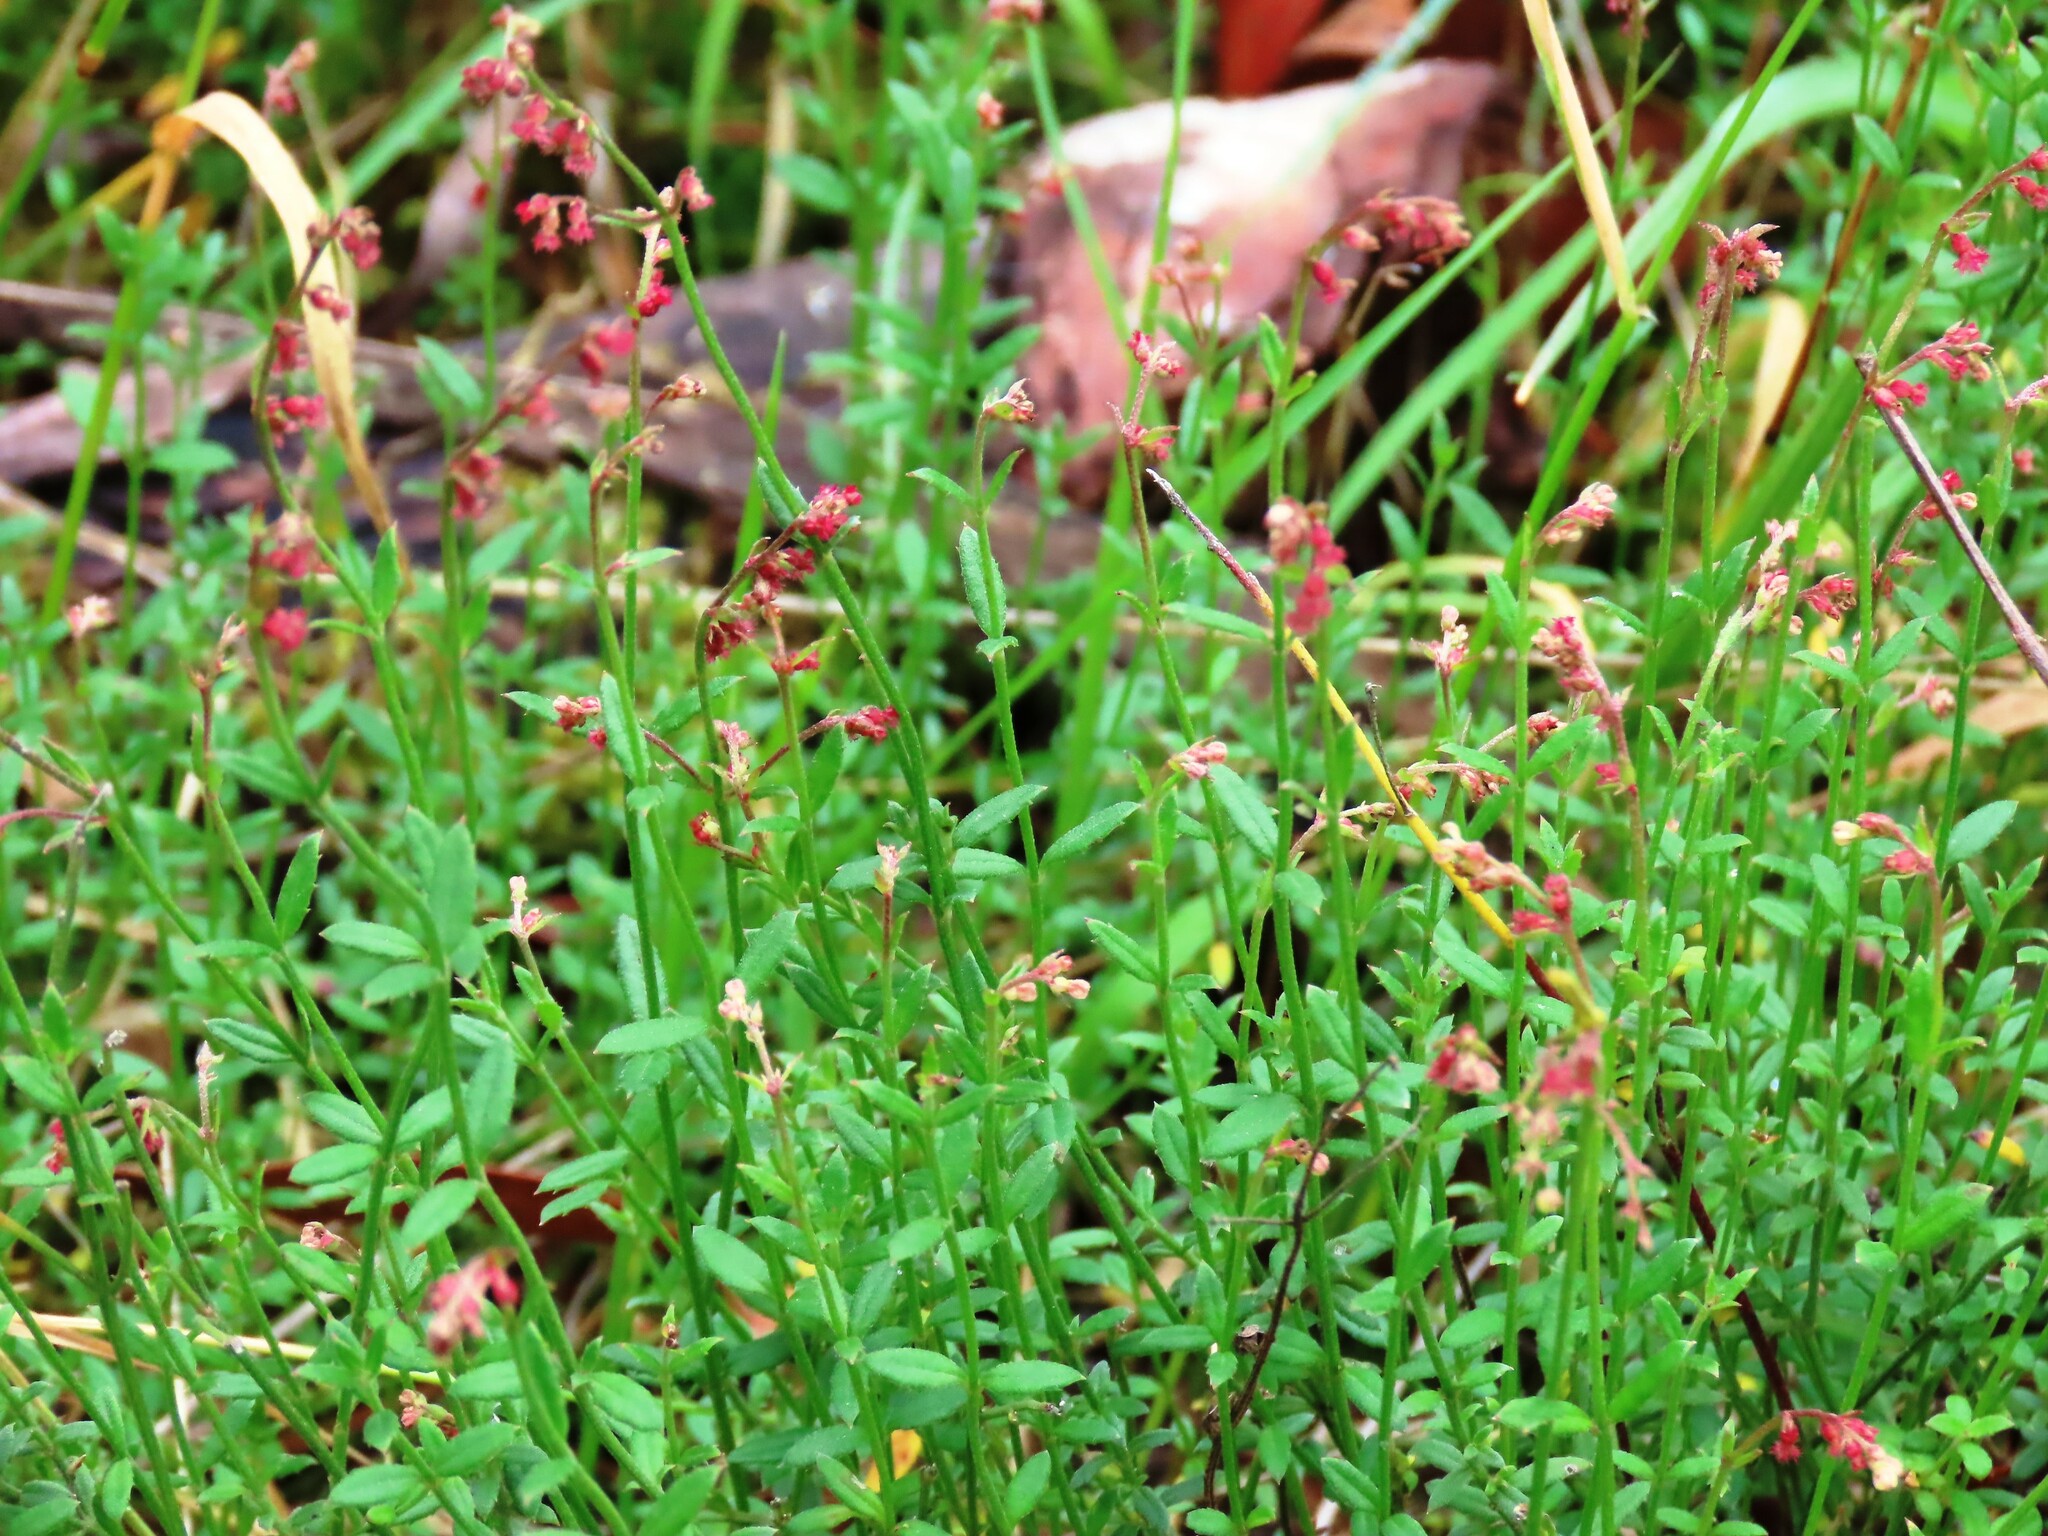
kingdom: Plantae
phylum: Tracheophyta
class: Magnoliopsida
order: Saxifragales
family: Haloragaceae
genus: Gonocarpus
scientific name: Gonocarpus tetragynus
